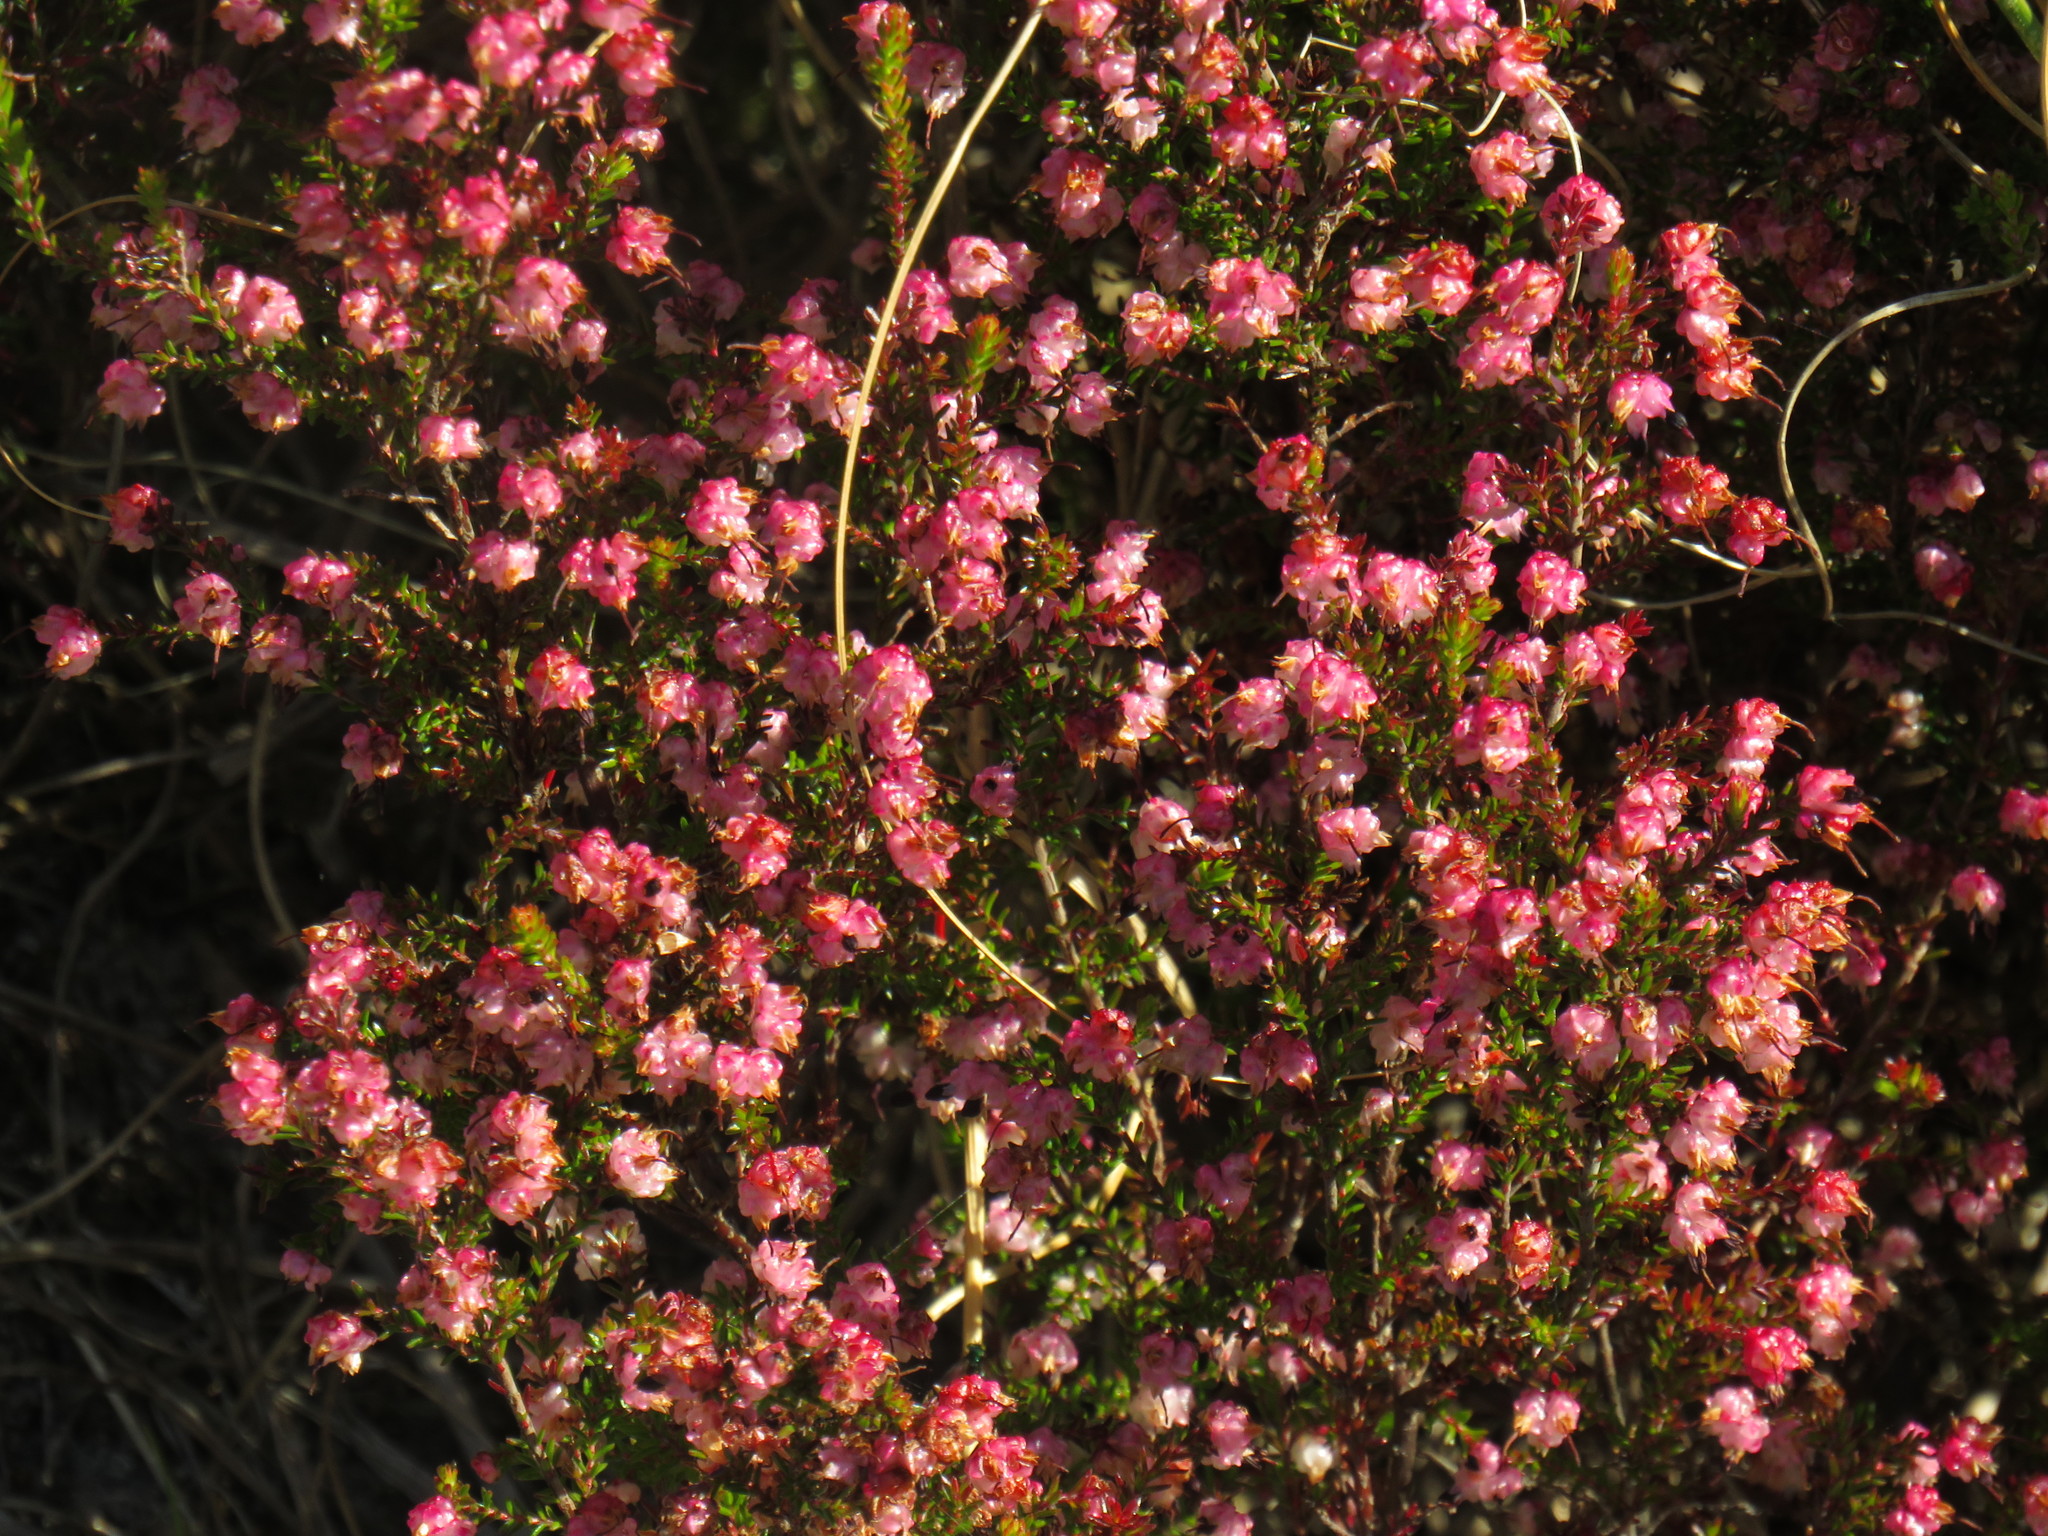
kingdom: Plantae
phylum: Tracheophyta
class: Magnoliopsida
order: Ericales
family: Ericaceae
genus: Erica
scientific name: Erica spumosa
